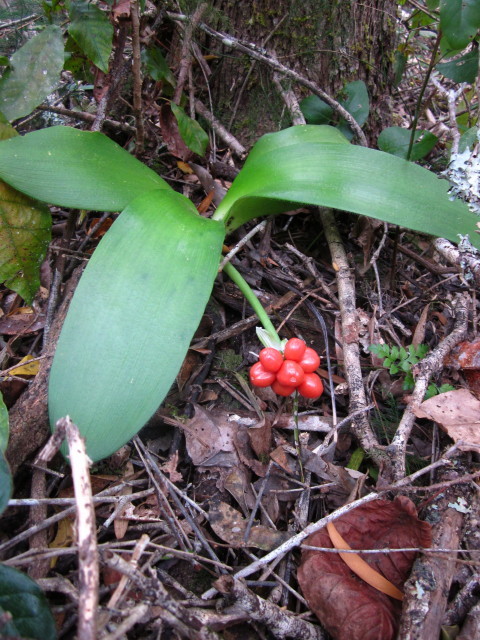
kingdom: Plantae
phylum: Tracheophyta
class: Liliopsida
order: Asparagales
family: Amaryllidaceae
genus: Haemanthus
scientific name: Haemanthus albiflos
